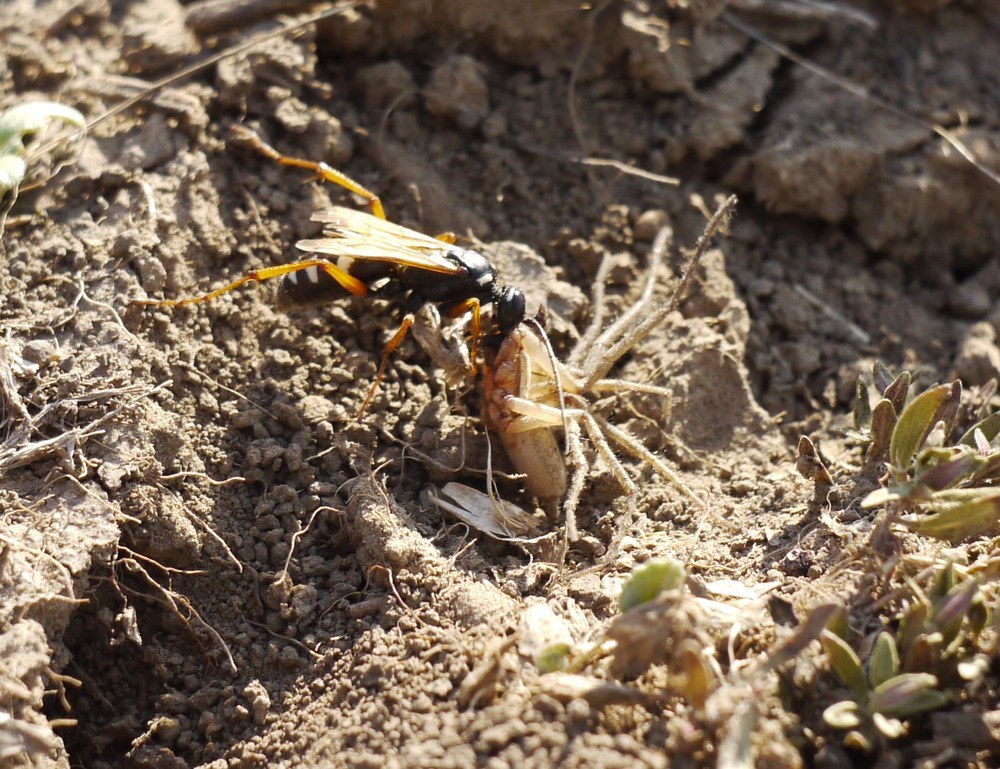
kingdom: Animalia
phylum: Arthropoda
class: Insecta
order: Hymenoptera
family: Pompilidae
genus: Cryptocheilus
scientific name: Cryptocheilus variabilis
